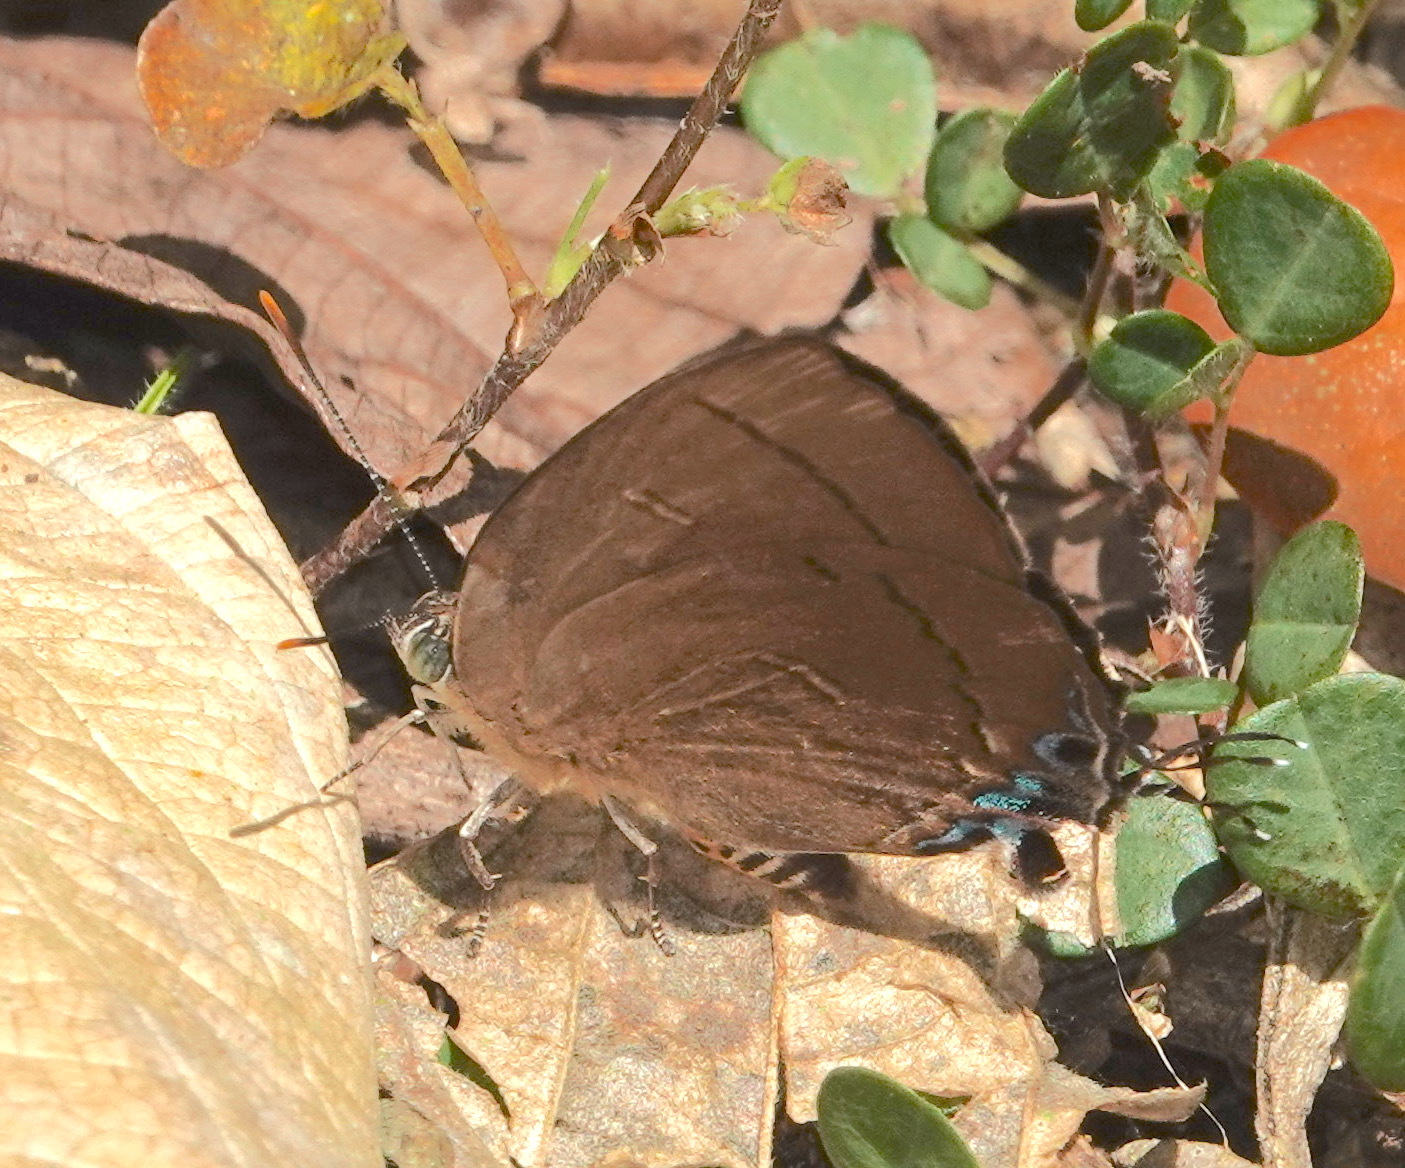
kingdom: Animalia
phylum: Arthropoda
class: Insecta
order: Lepidoptera
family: Lycaenidae
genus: Remelana
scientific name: Remelana jangala
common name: Chocolate royal
